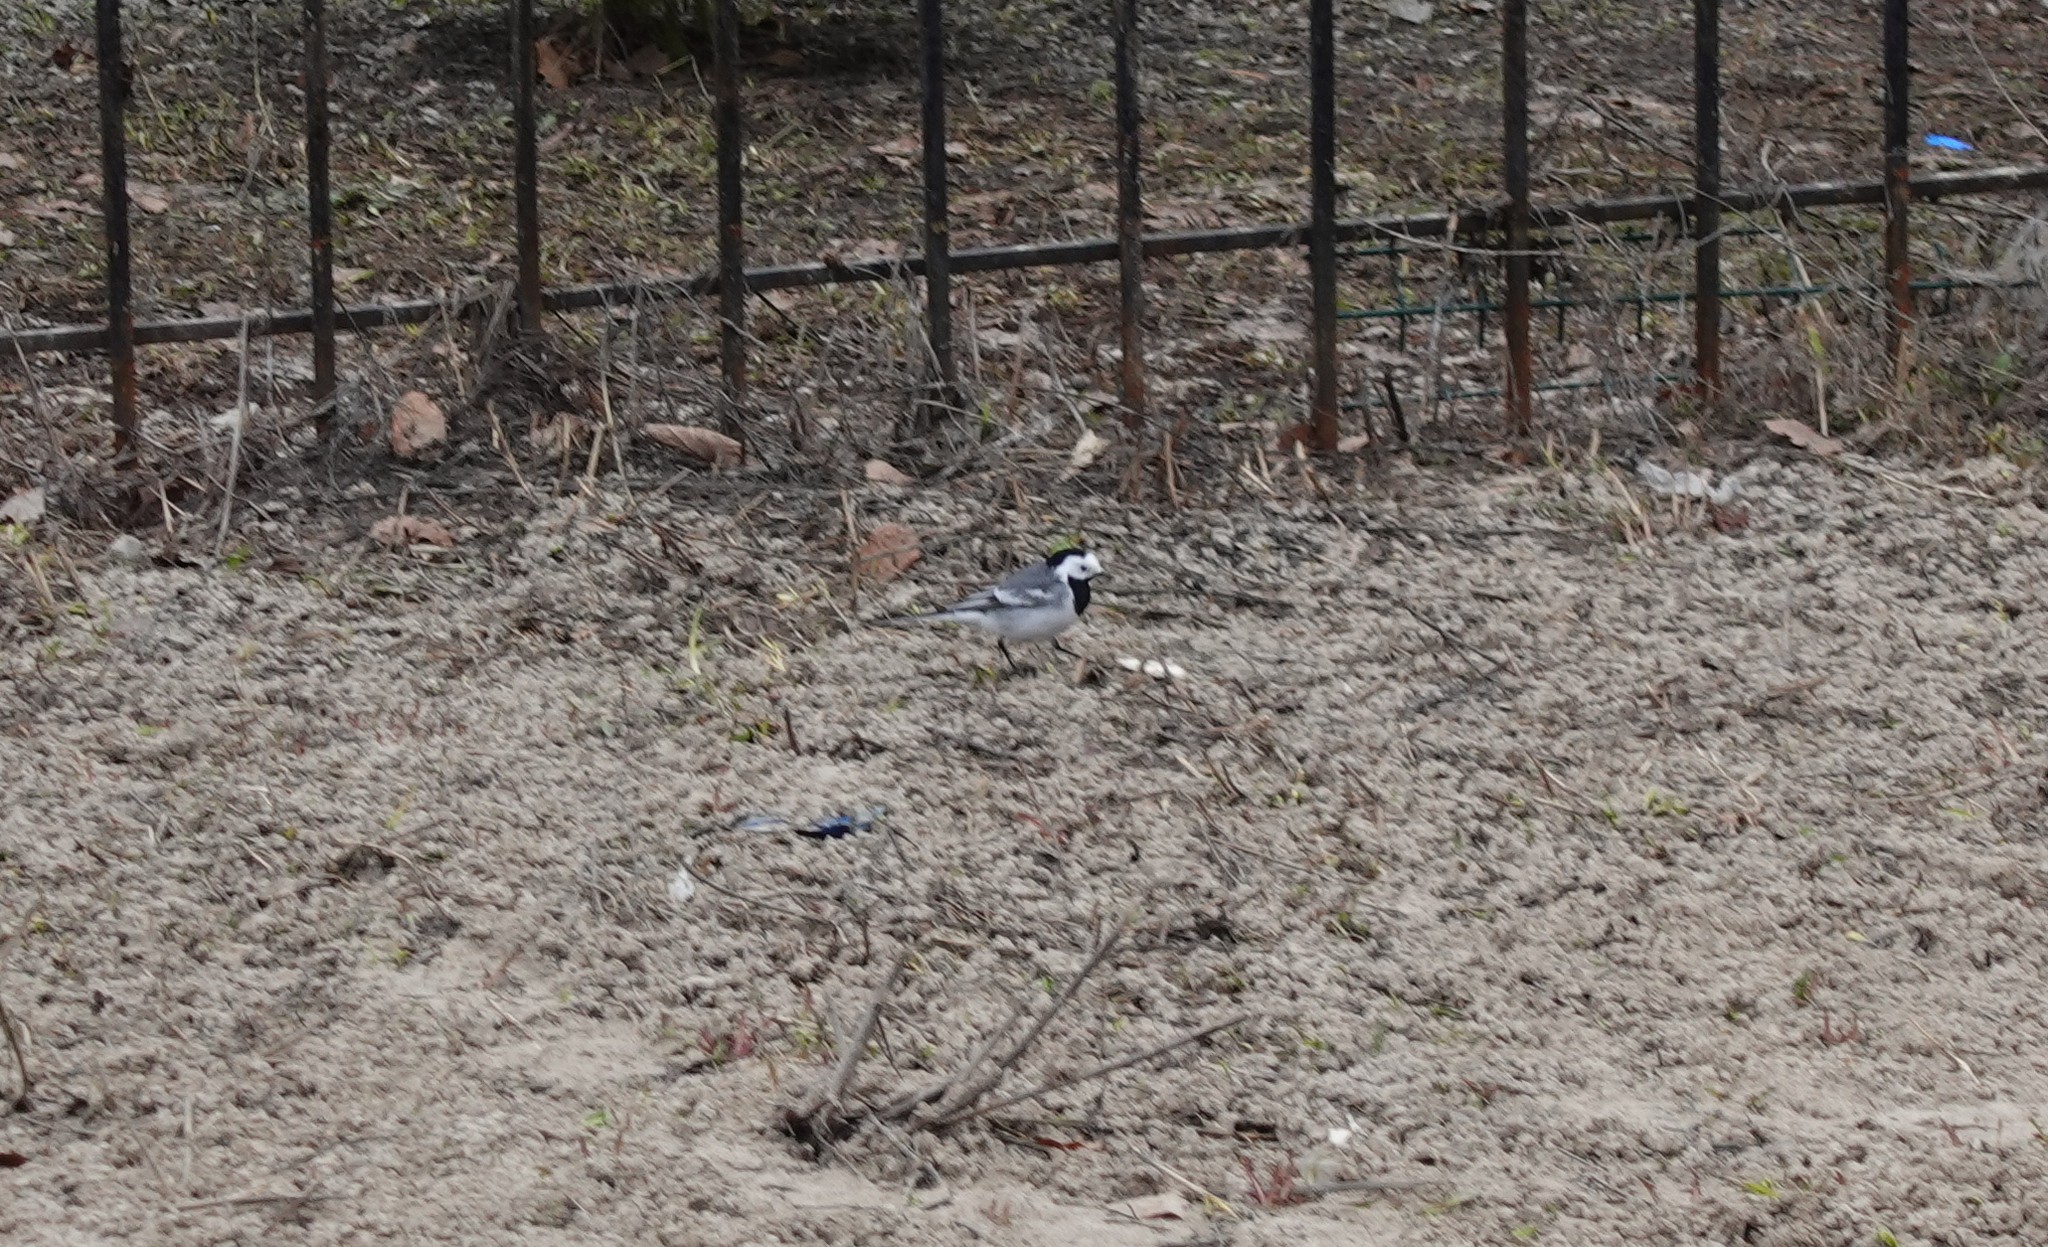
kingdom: Animalia
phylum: Chordata
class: Aves
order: Passeriformes
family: Motacillidae
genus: Motacilla
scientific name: Motacilla alba
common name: White wagtail
